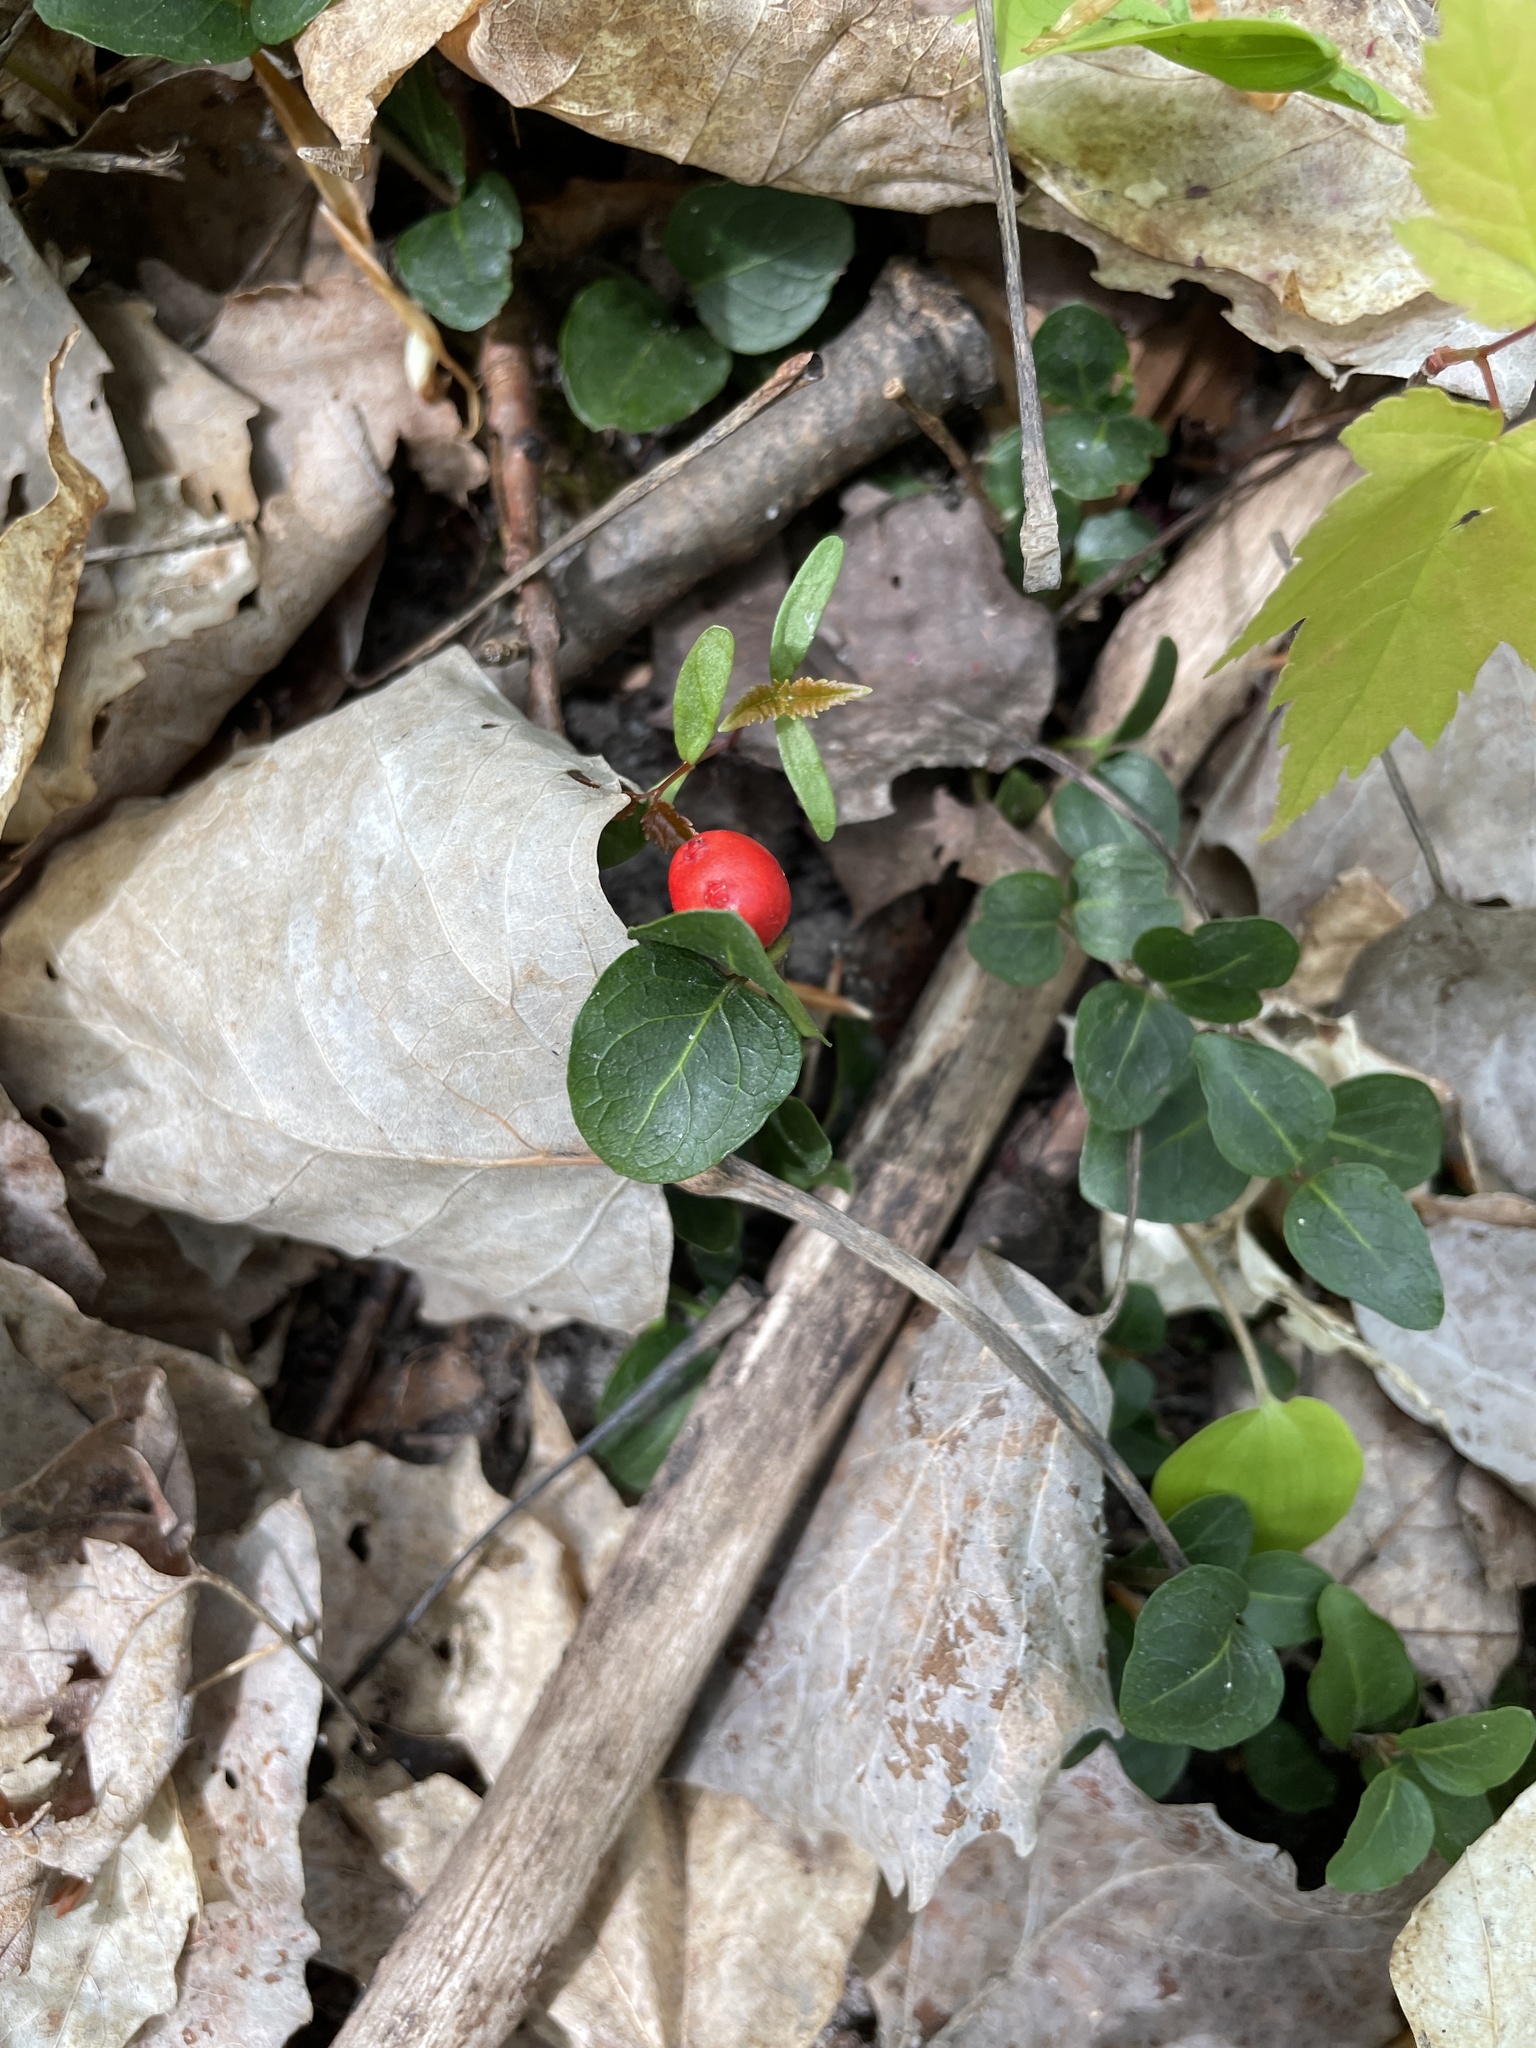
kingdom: Plantae
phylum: Tracheophyta
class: Magnoliopsida
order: Gentianales
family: Rubiaceae
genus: Mitchella
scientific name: Mitchella repens
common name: Partridge-berry
